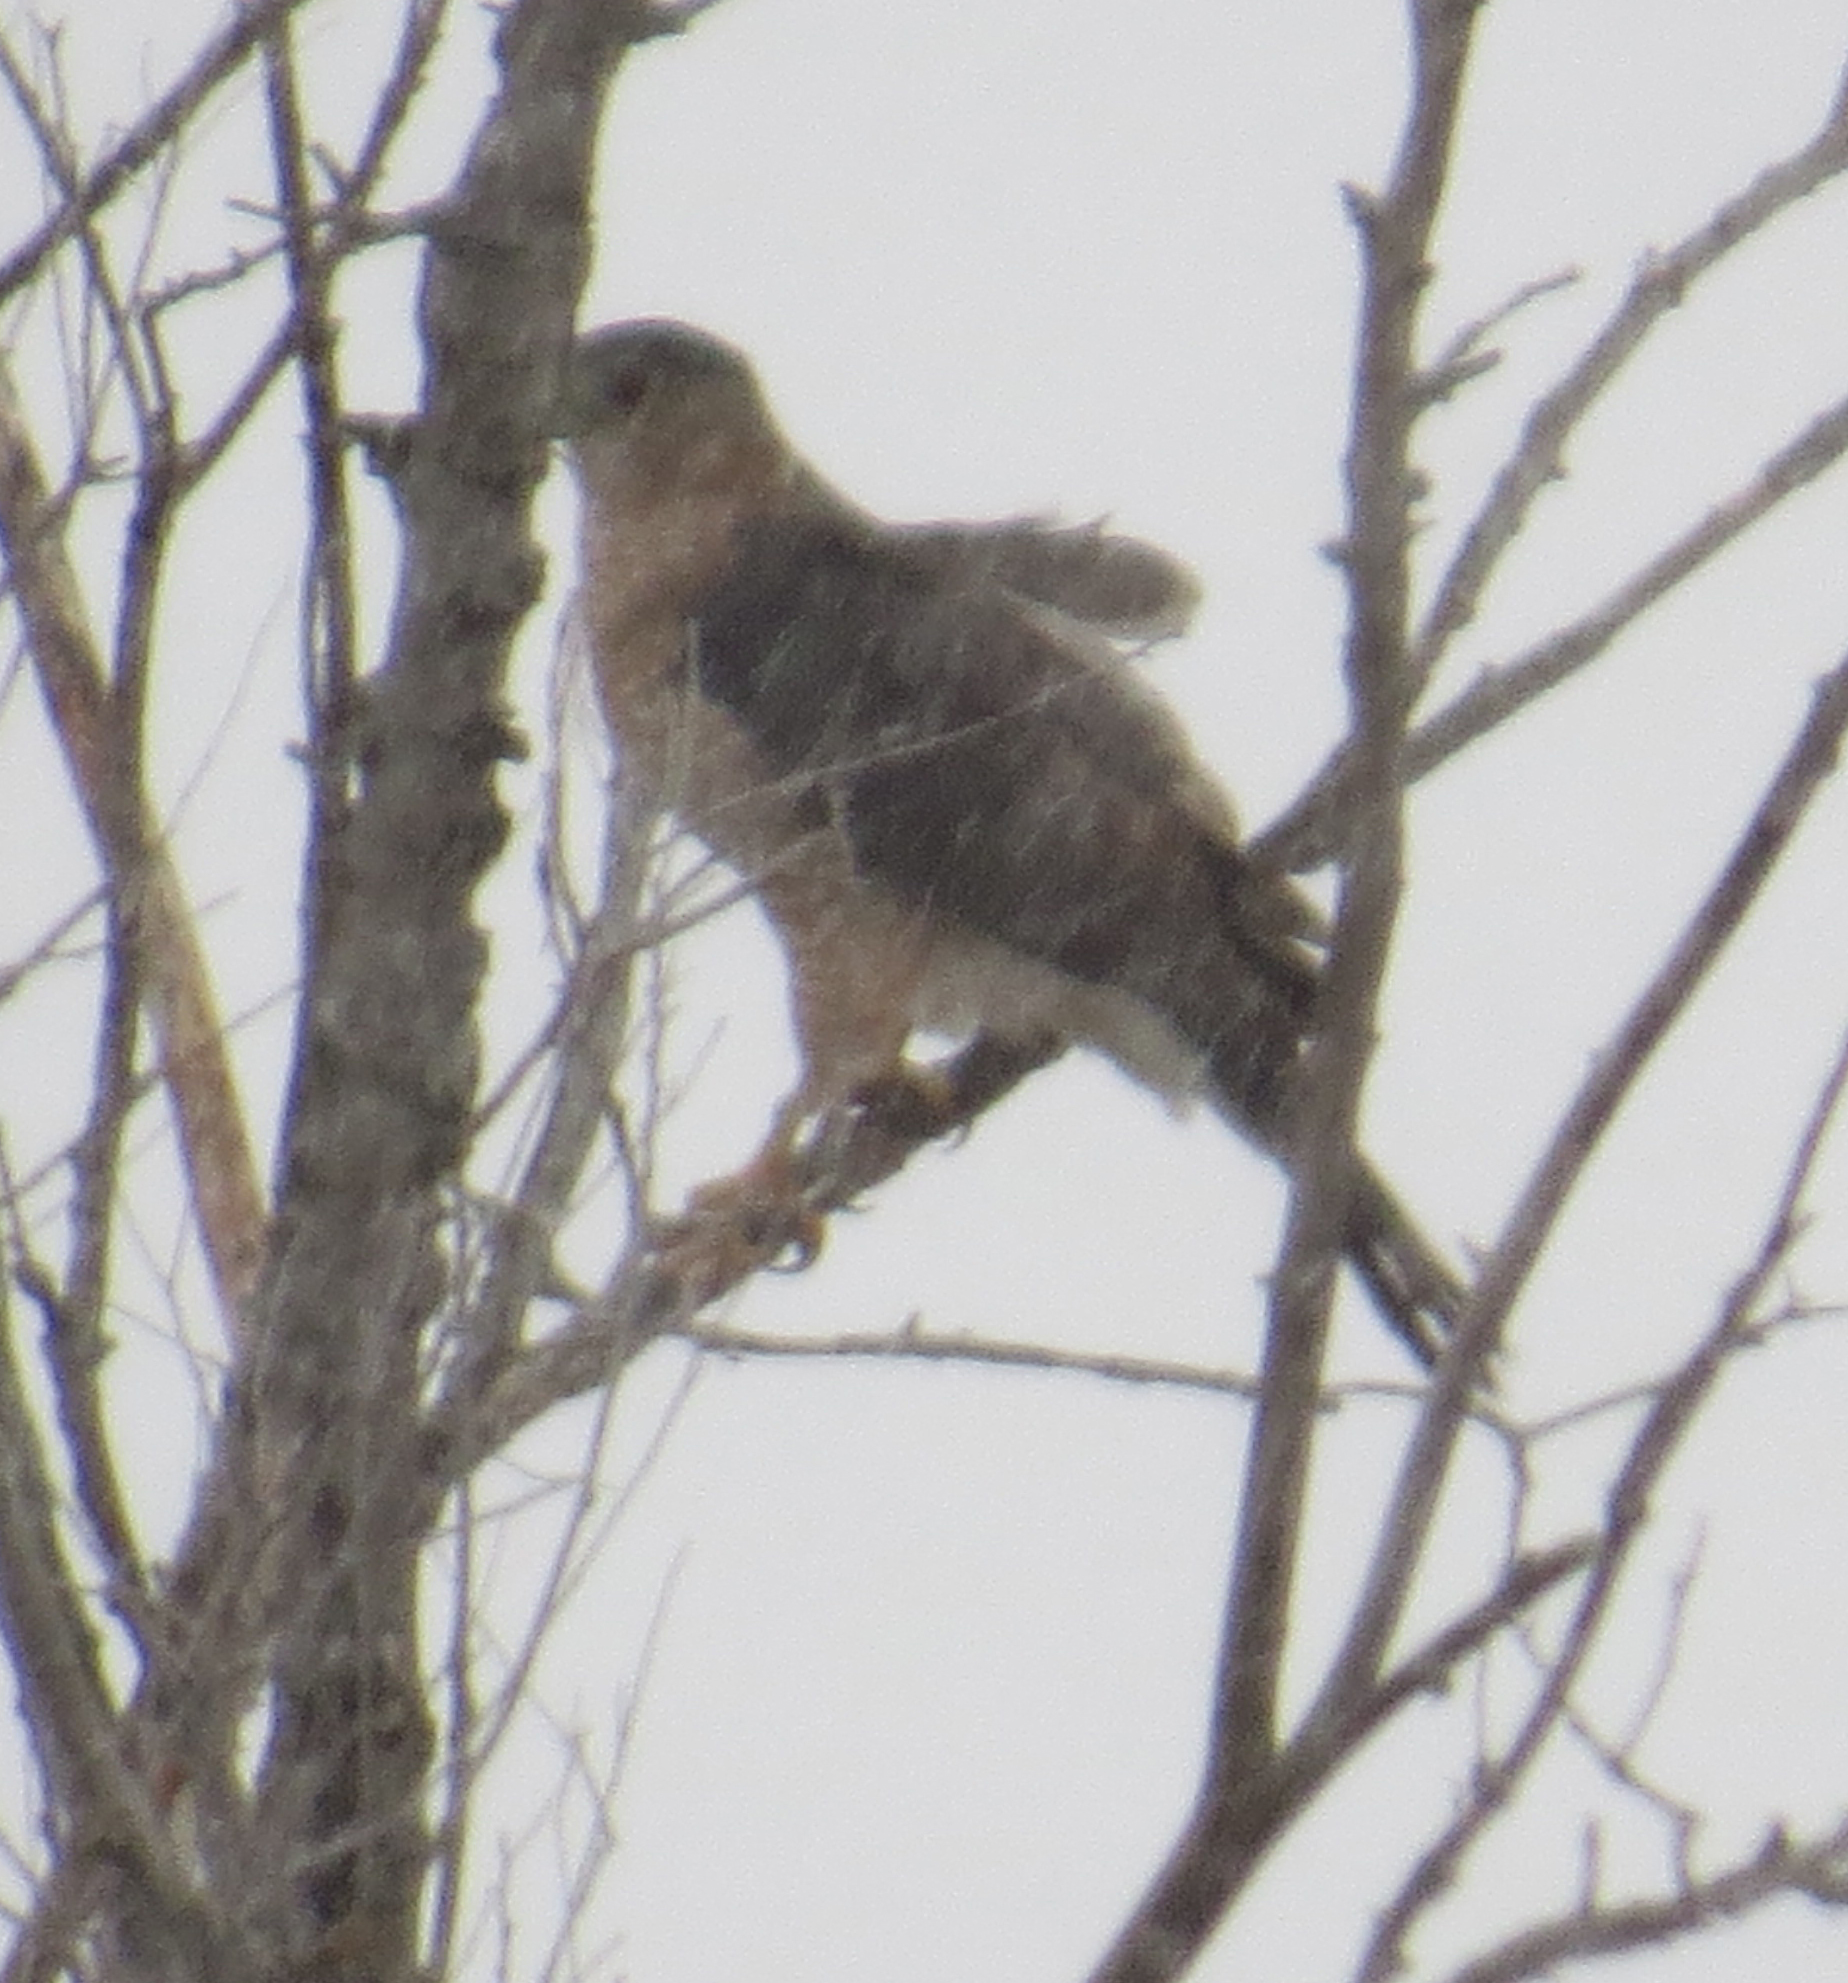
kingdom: Animalia
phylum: Chordata
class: Aves
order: Accipitriformes
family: Accipitridae
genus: Accipiter
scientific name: Accipiter cooperii
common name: Cooper's hawk
